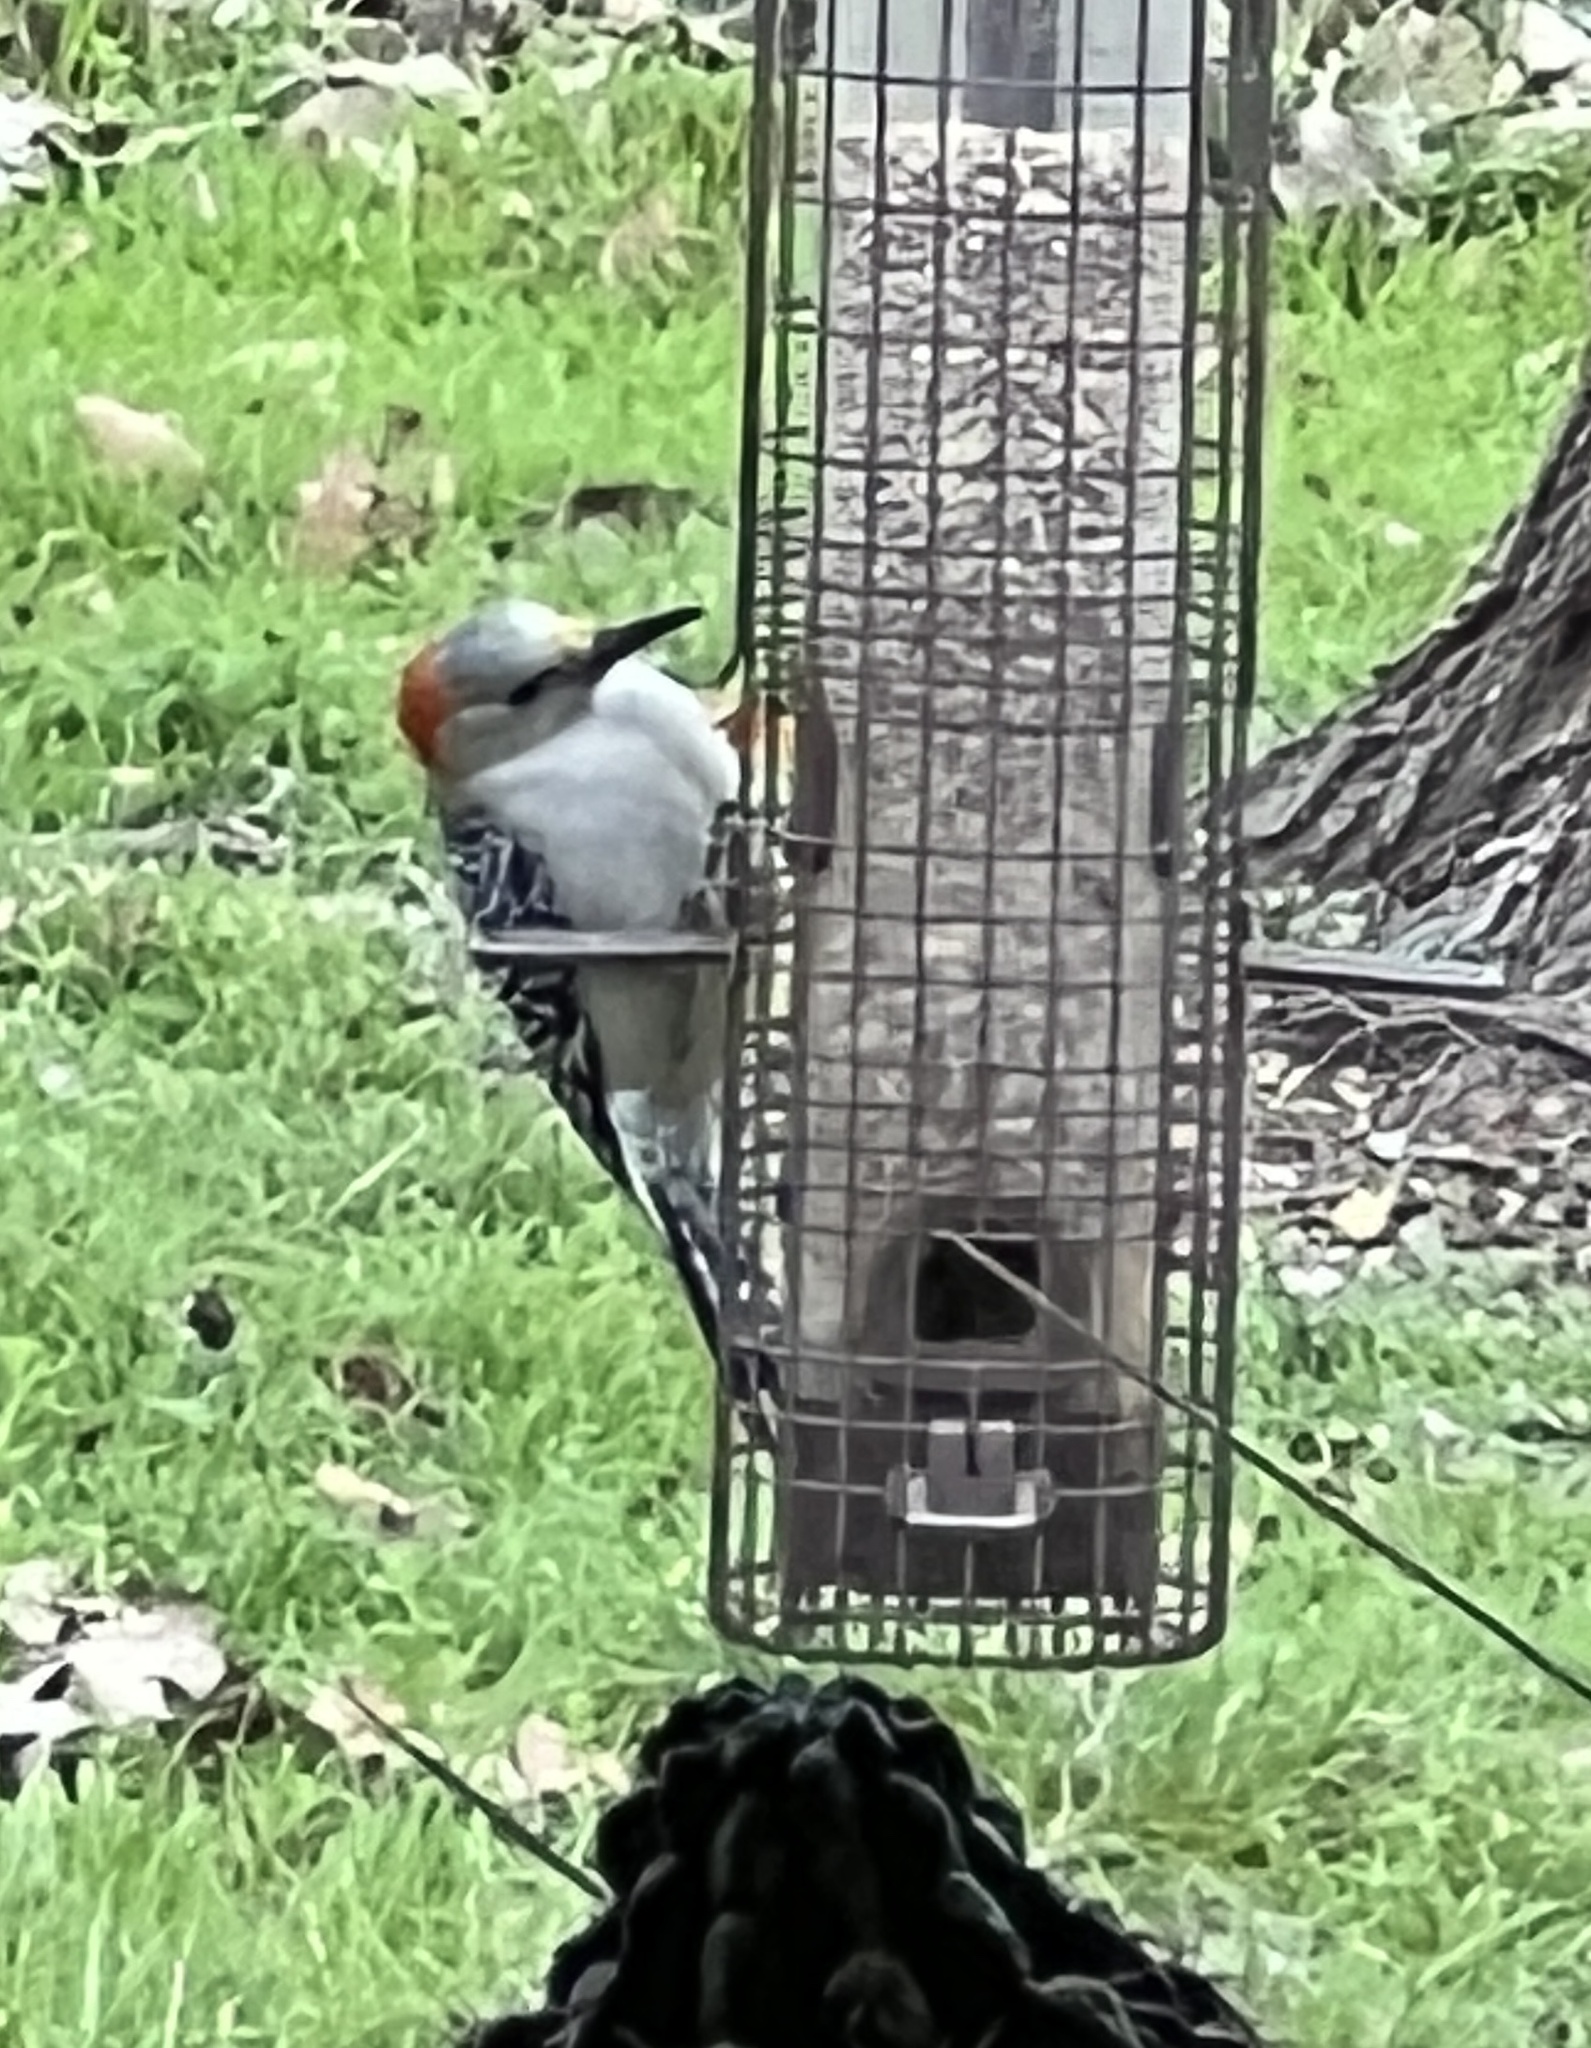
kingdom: Animalia
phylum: Chordata
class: Aves
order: Piciformes
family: Picidae
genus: Melanerpes
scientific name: Melanerpes carolinus
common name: Red-bellied woodpecker
